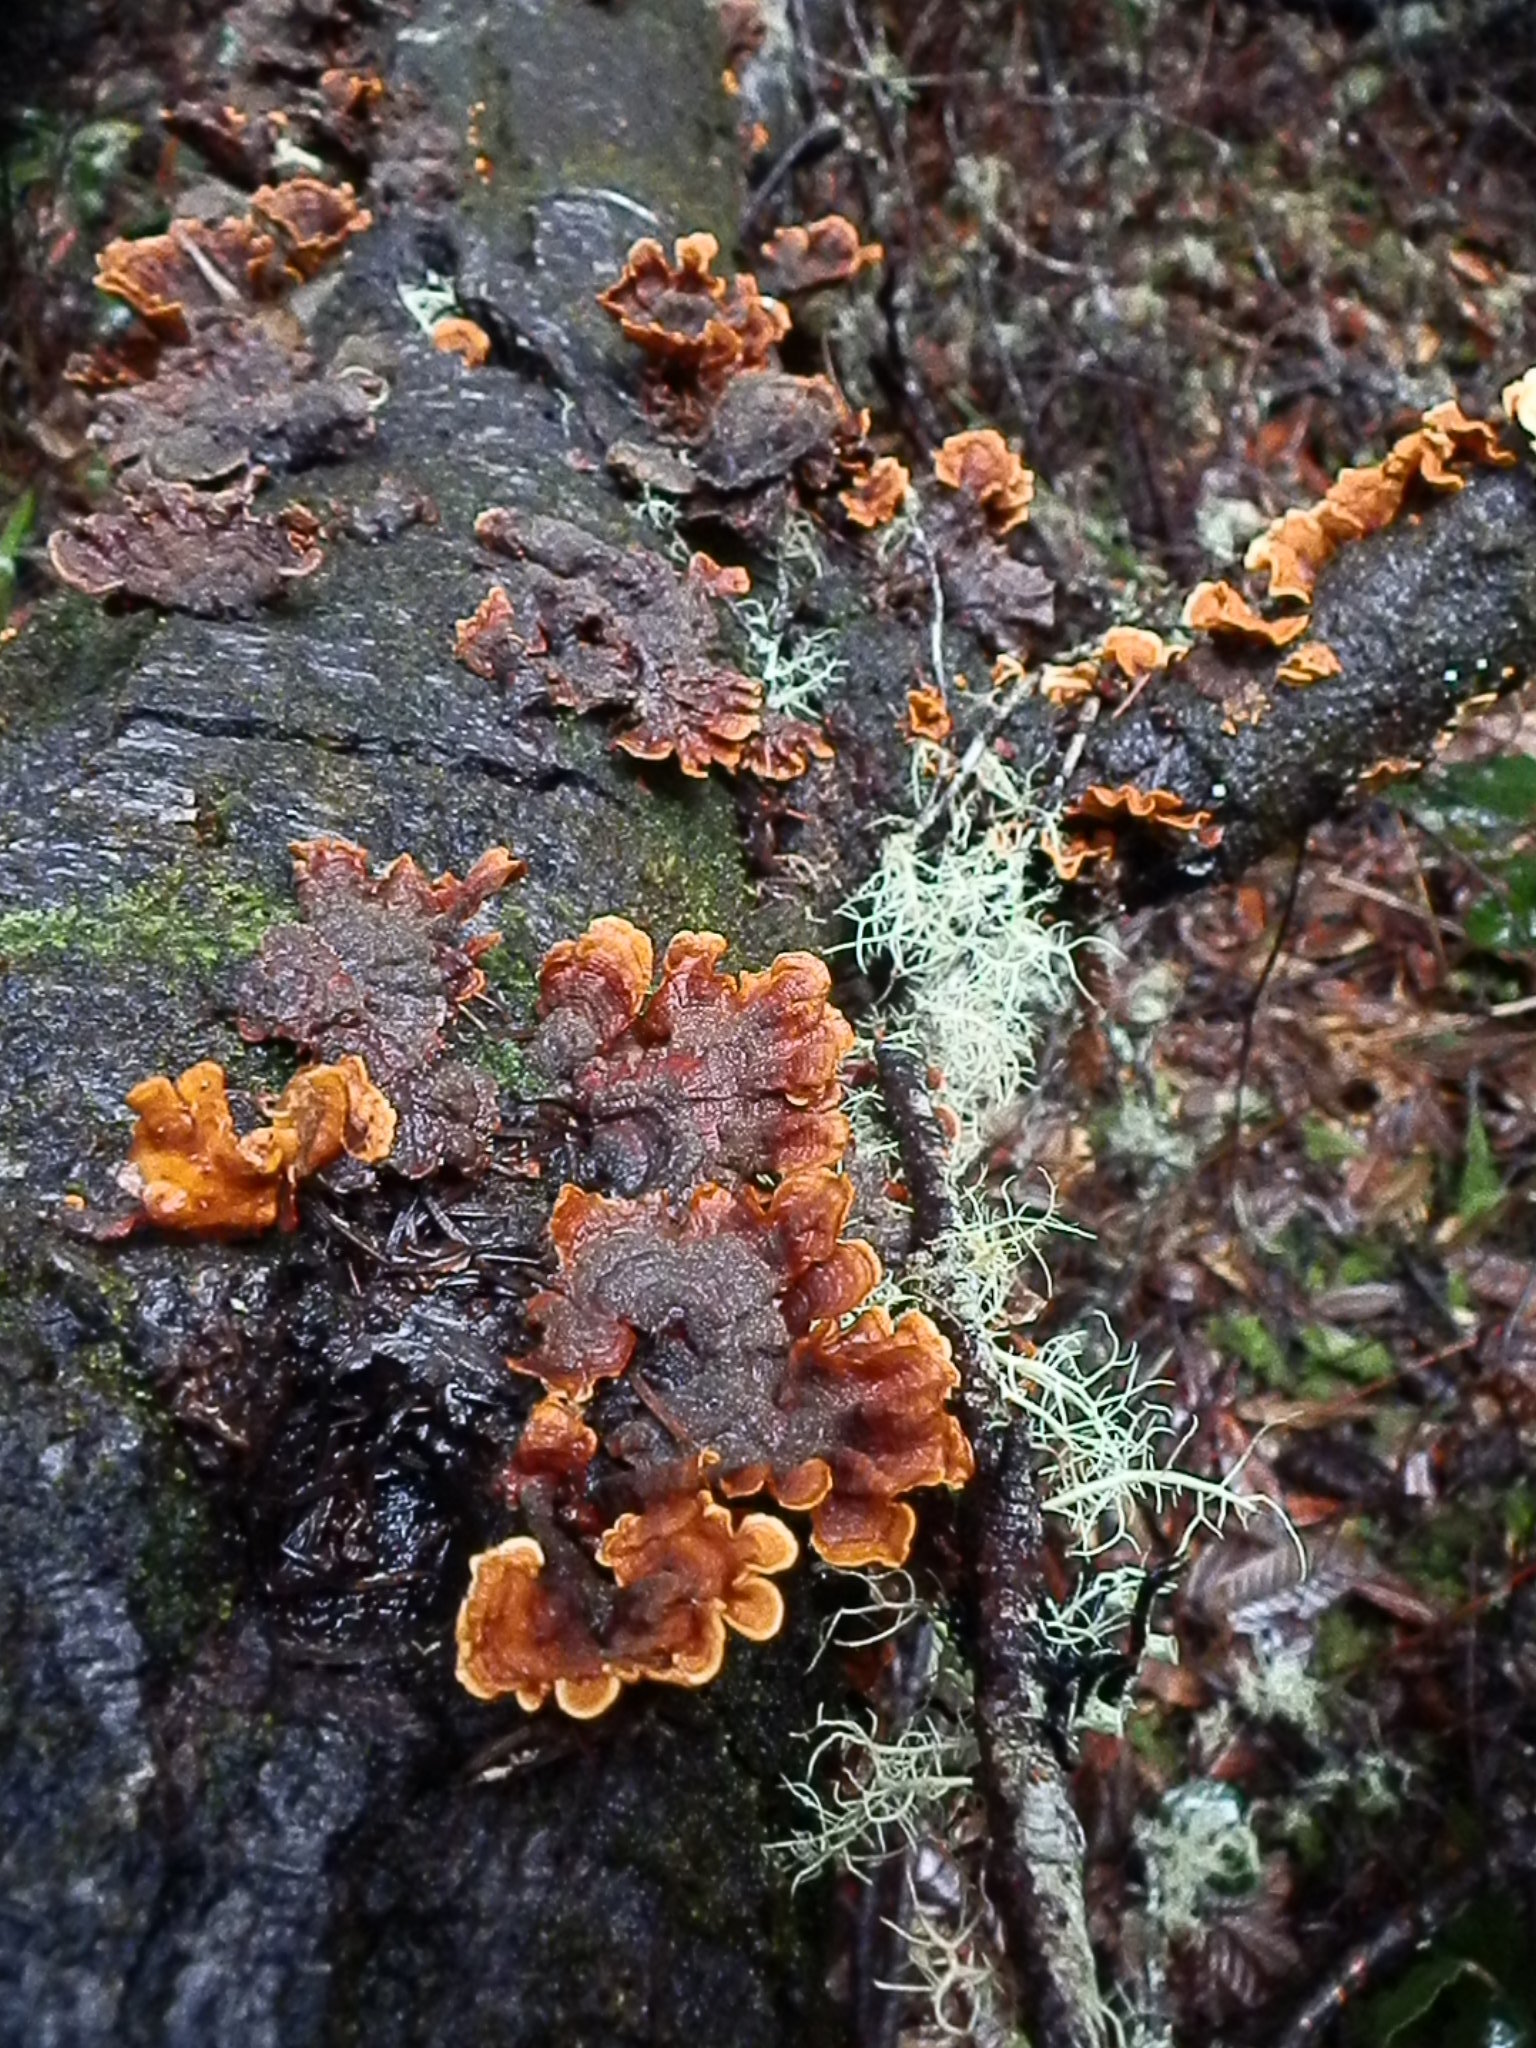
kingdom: Fungi
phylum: Basidiomycota
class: Agaricomycetes
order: Russulales
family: Stereaceae
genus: Stereum
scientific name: Stereum hirsutum
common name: Hairy curtain crust
